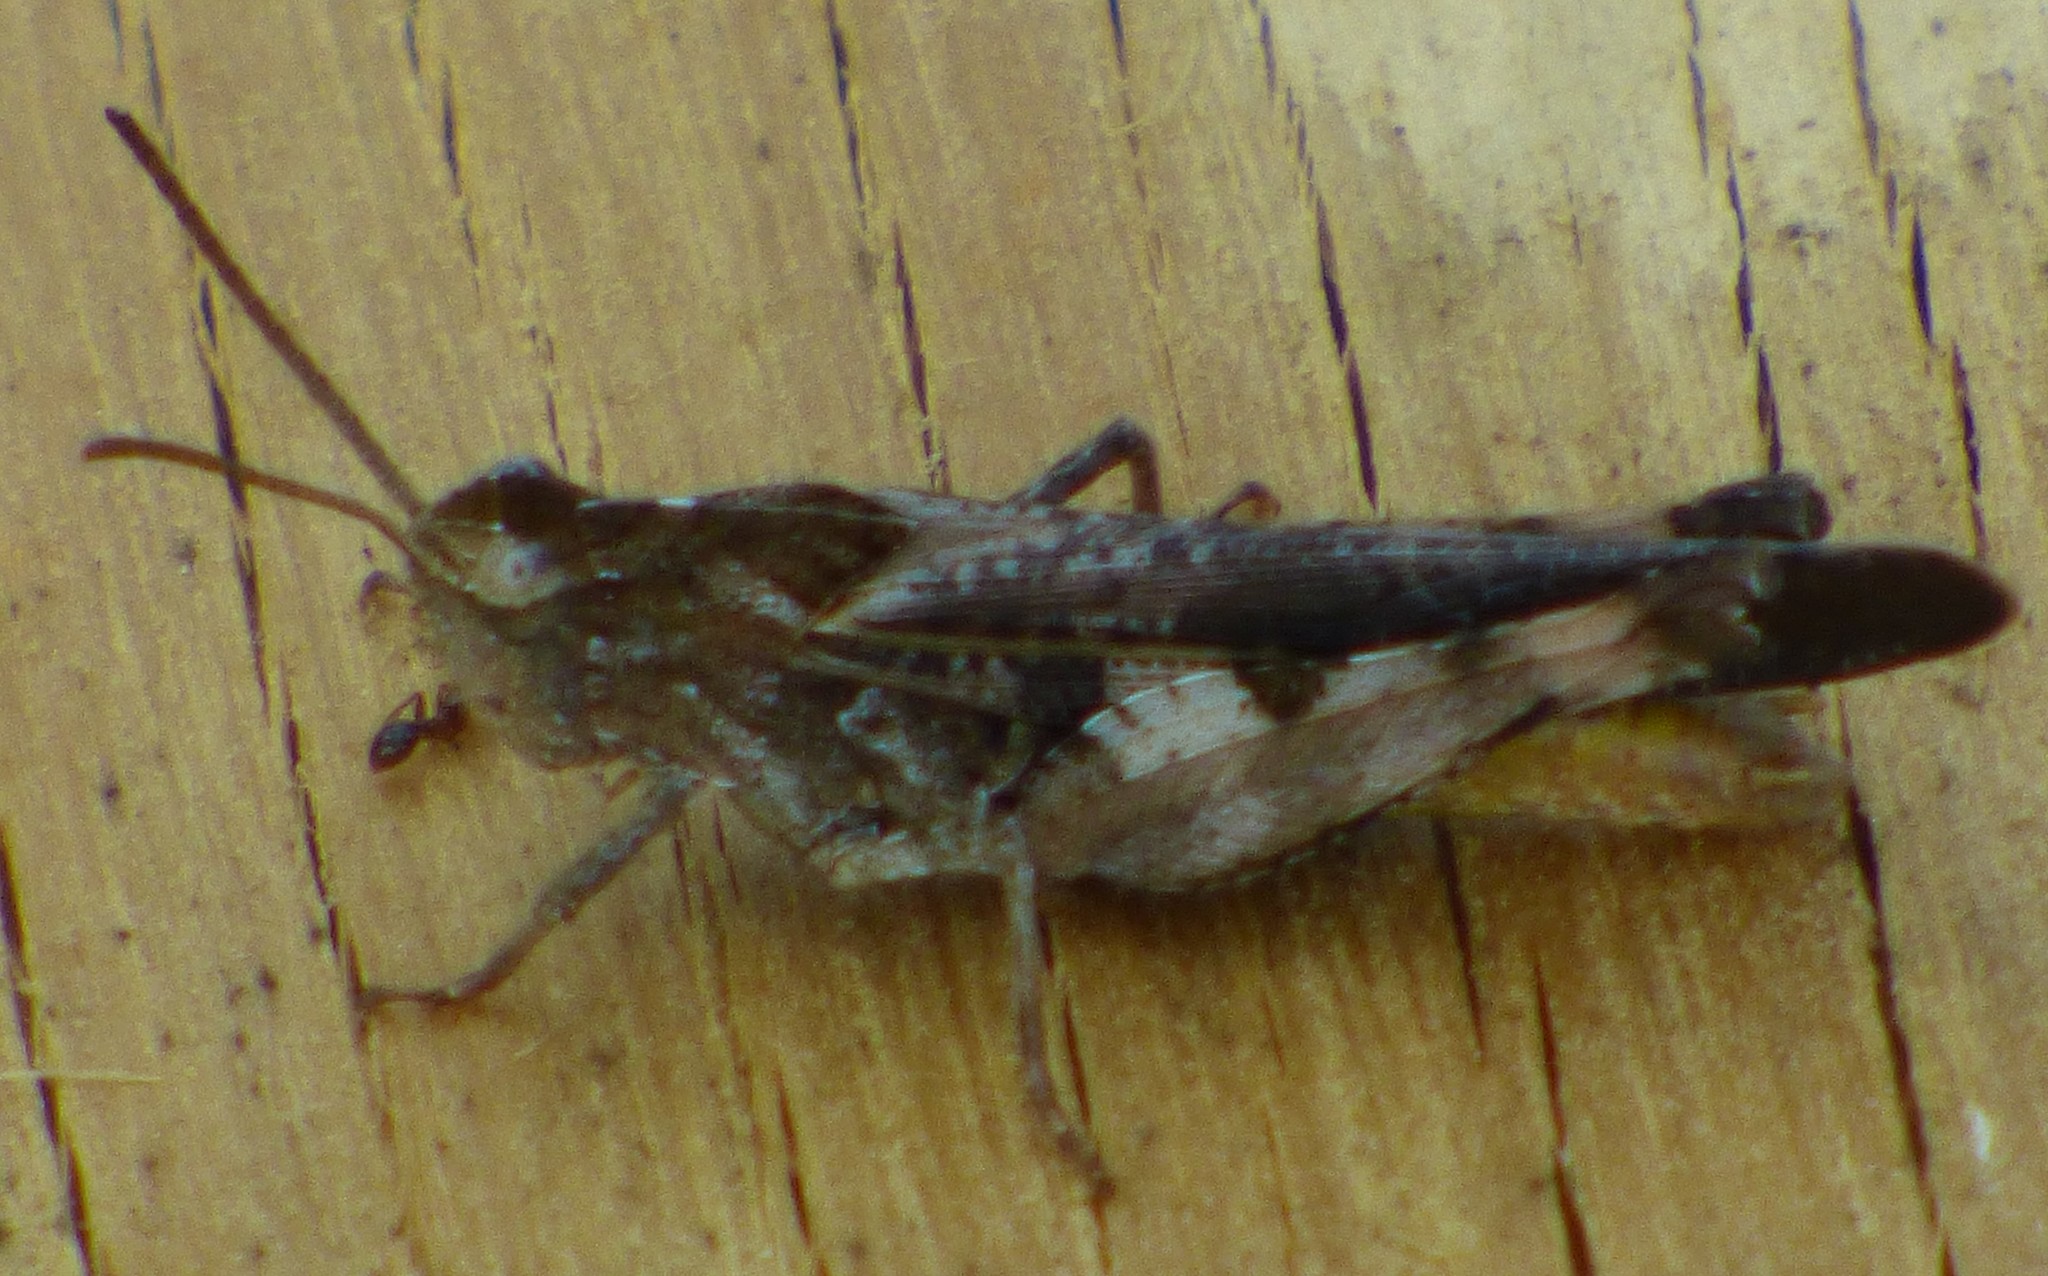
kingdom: Animalia
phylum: Arthropoda
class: Insecta
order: Orthoptera
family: Acrididae
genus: Chortophaga
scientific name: Chortophaga australior
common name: Southern green-striped grasshopper
